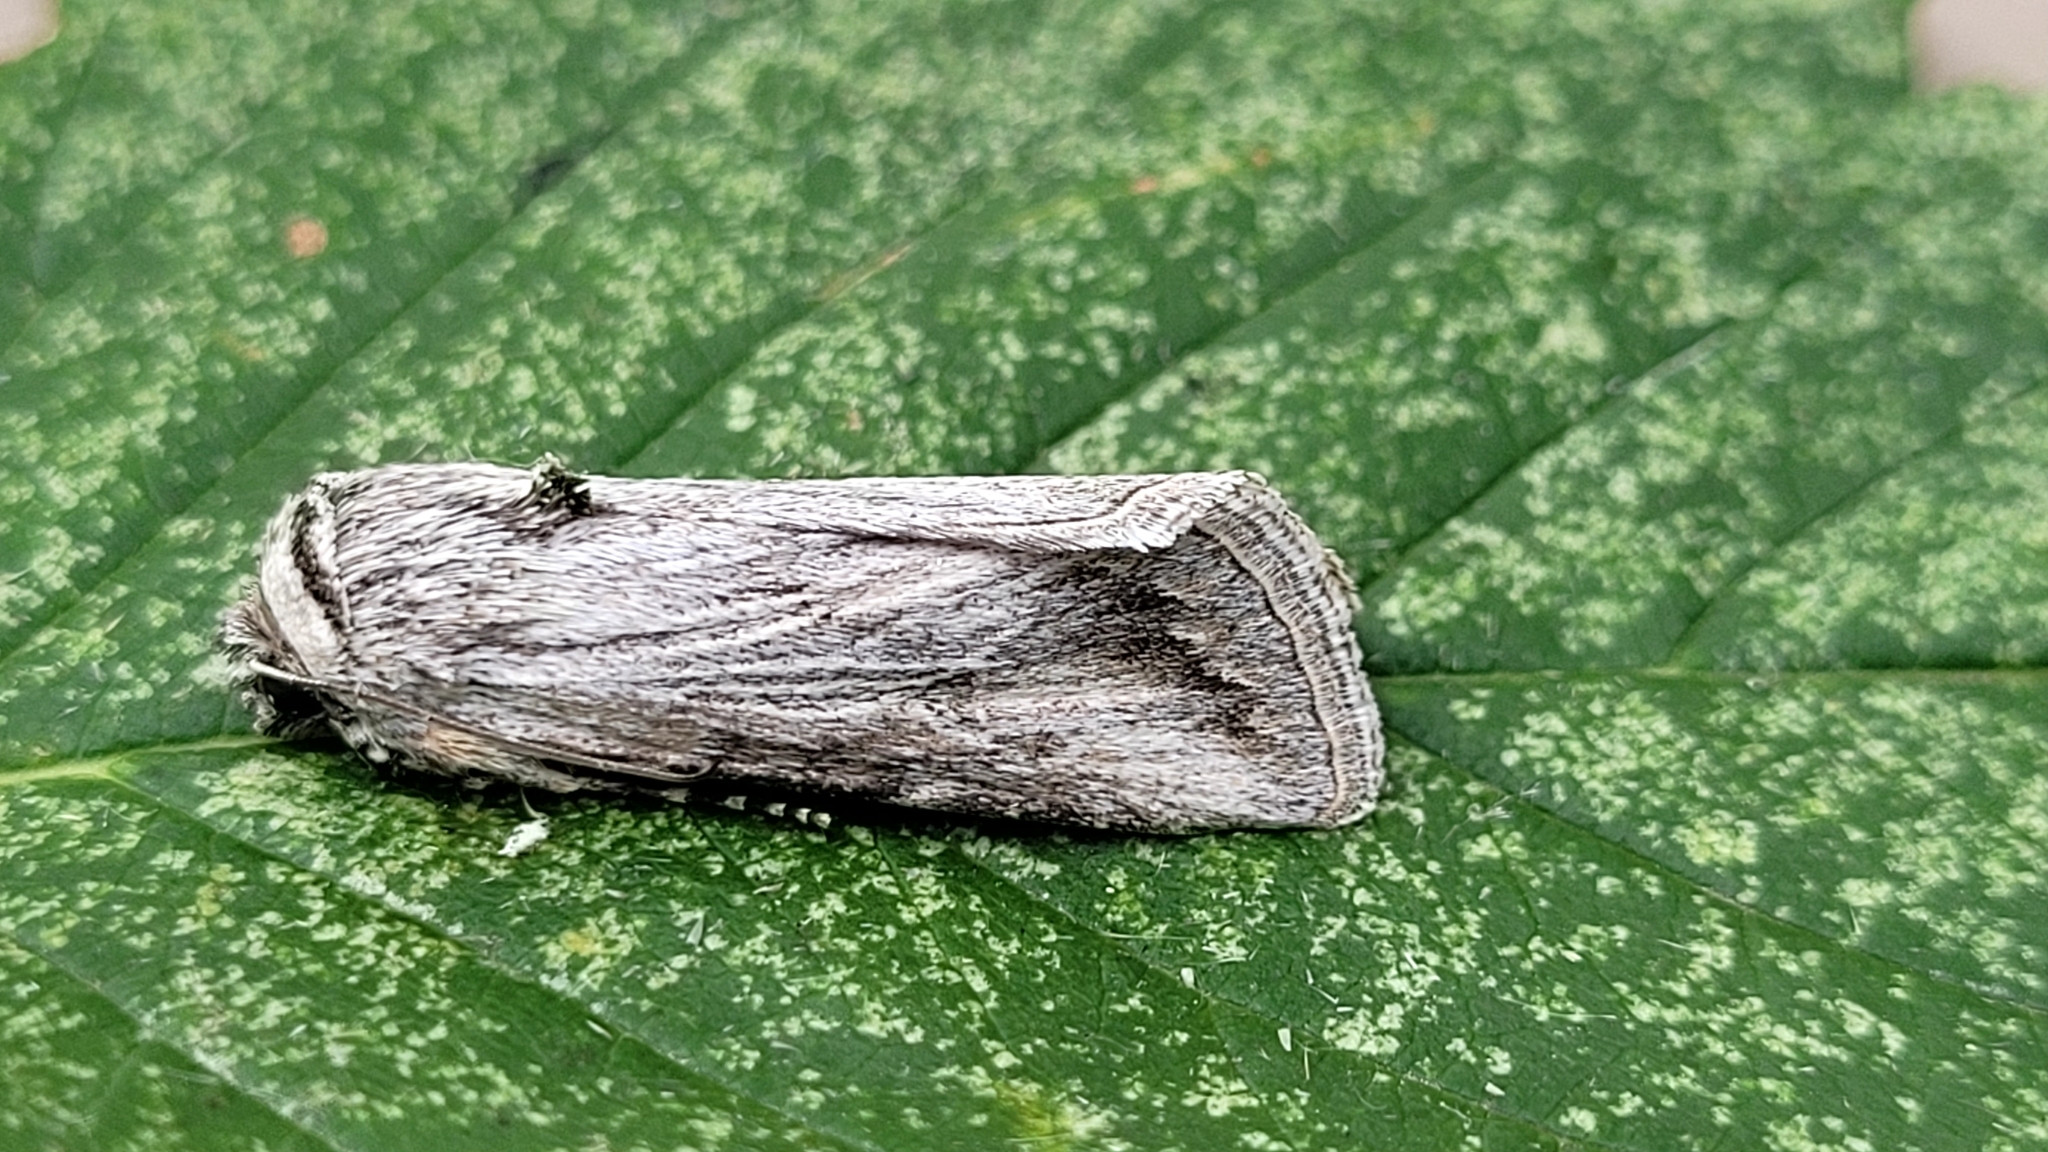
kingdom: Animalia
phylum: Arthropoda
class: Insecta
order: Lepidoptera
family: Noctuidae
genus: Sympistis
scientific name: Sympistis cibalis
